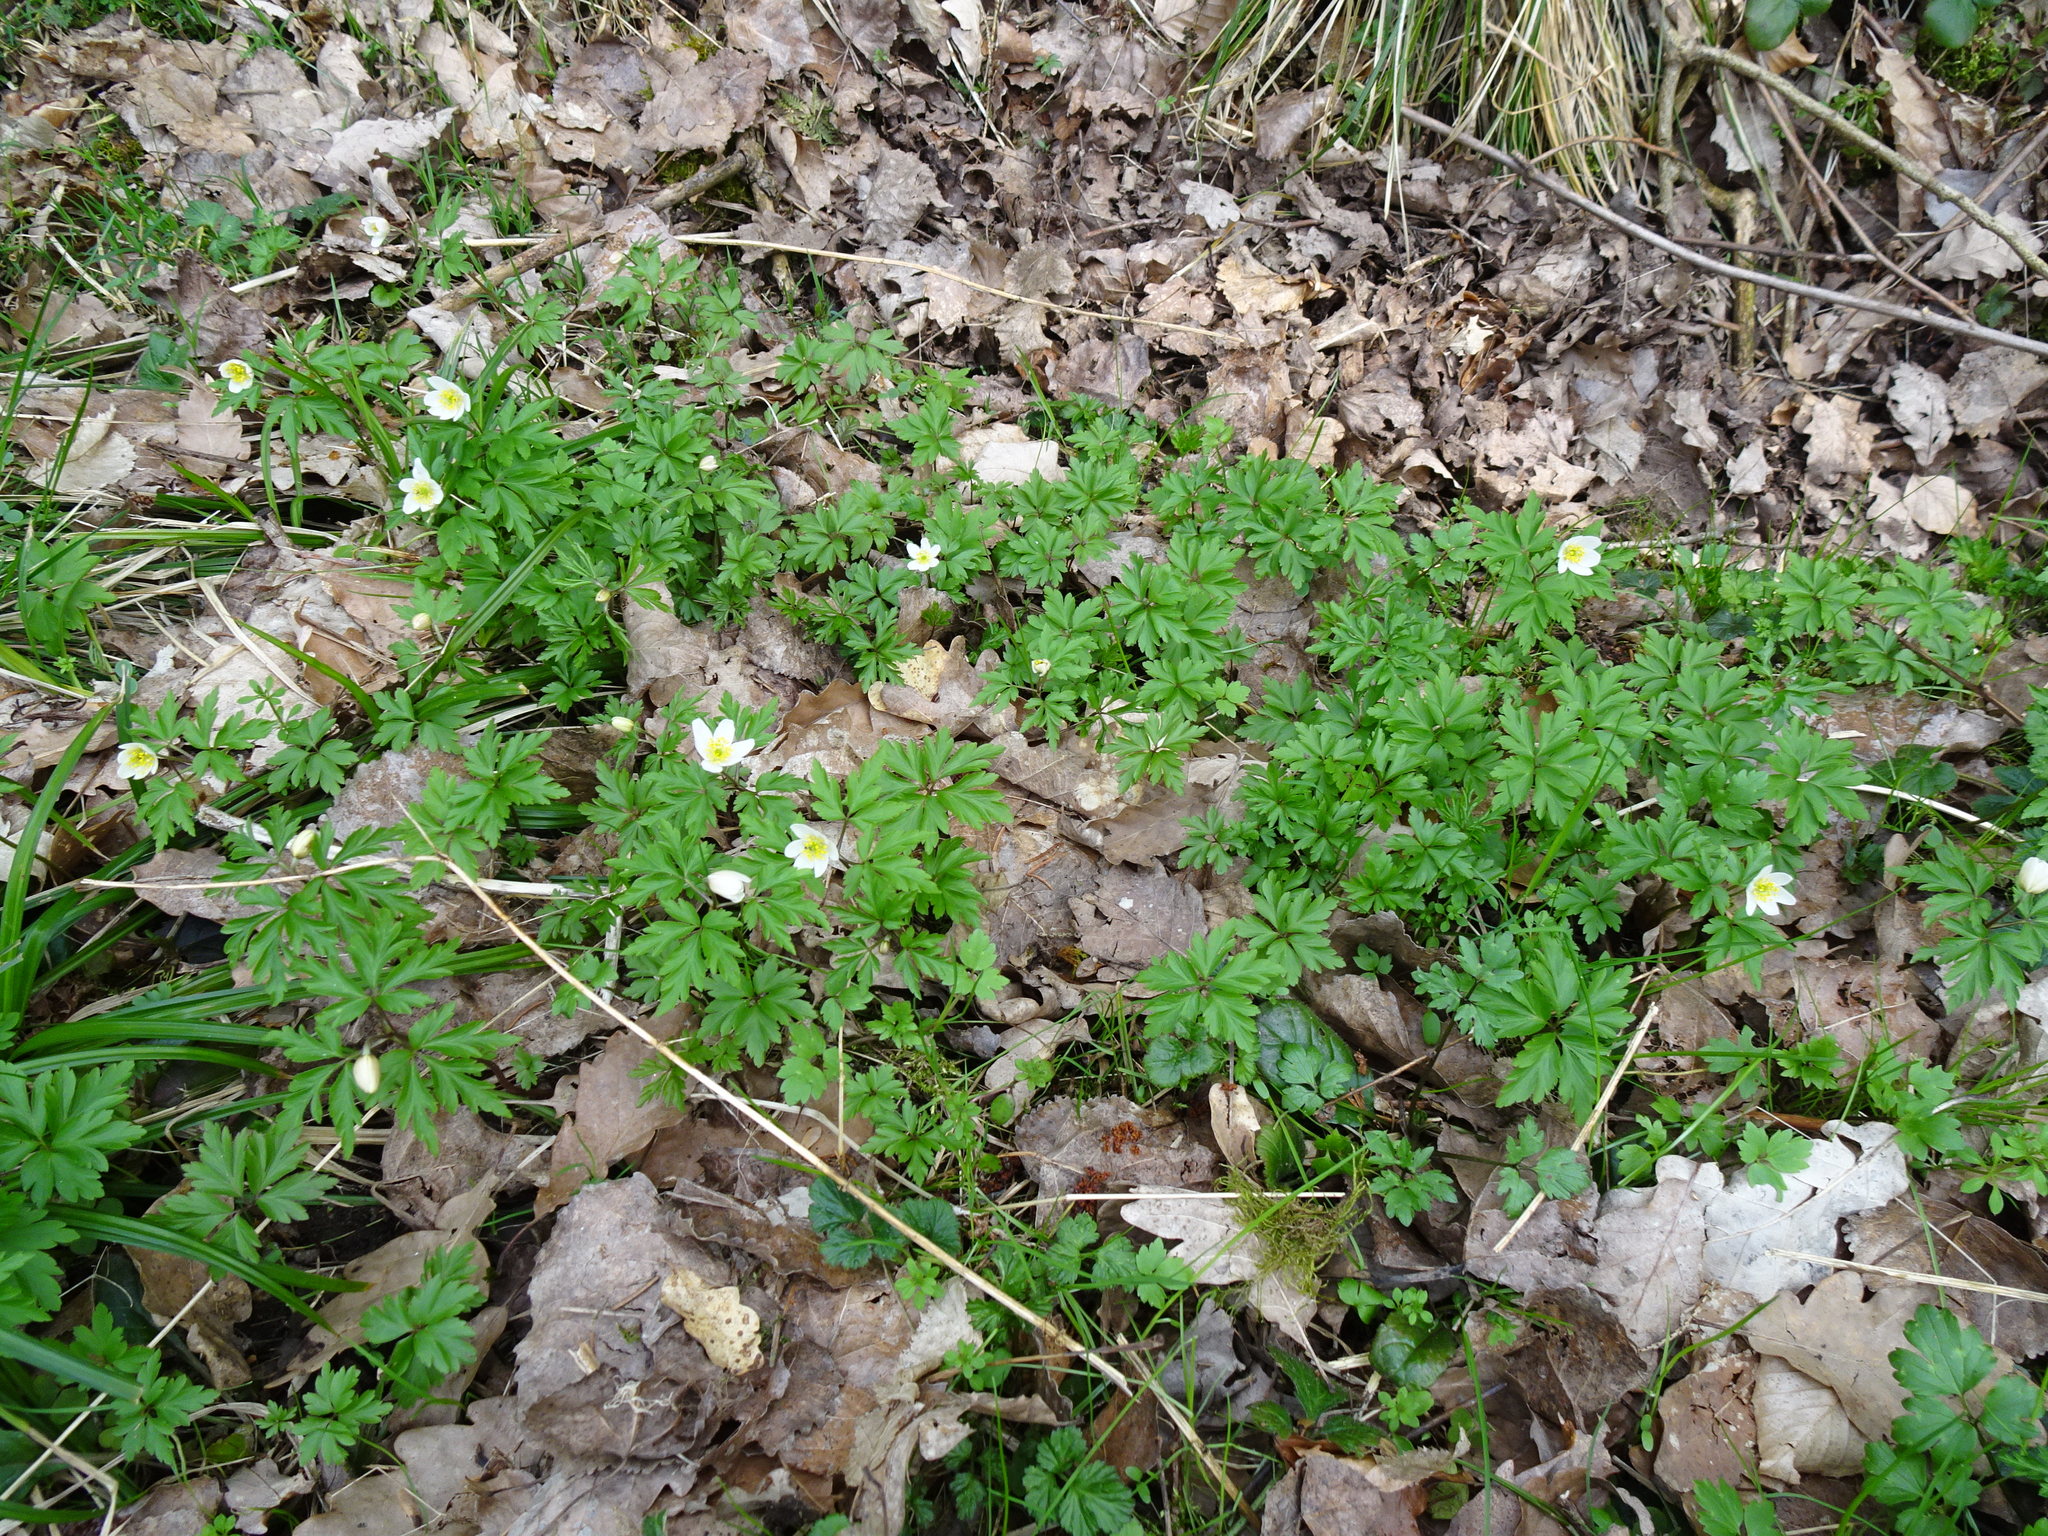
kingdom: Plantae
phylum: Tracheophyta
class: Magnoliopsida
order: Ranunculales
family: Ranunculaceae
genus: Anemone
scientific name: Anemone nemorosa
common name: Wood anemone
